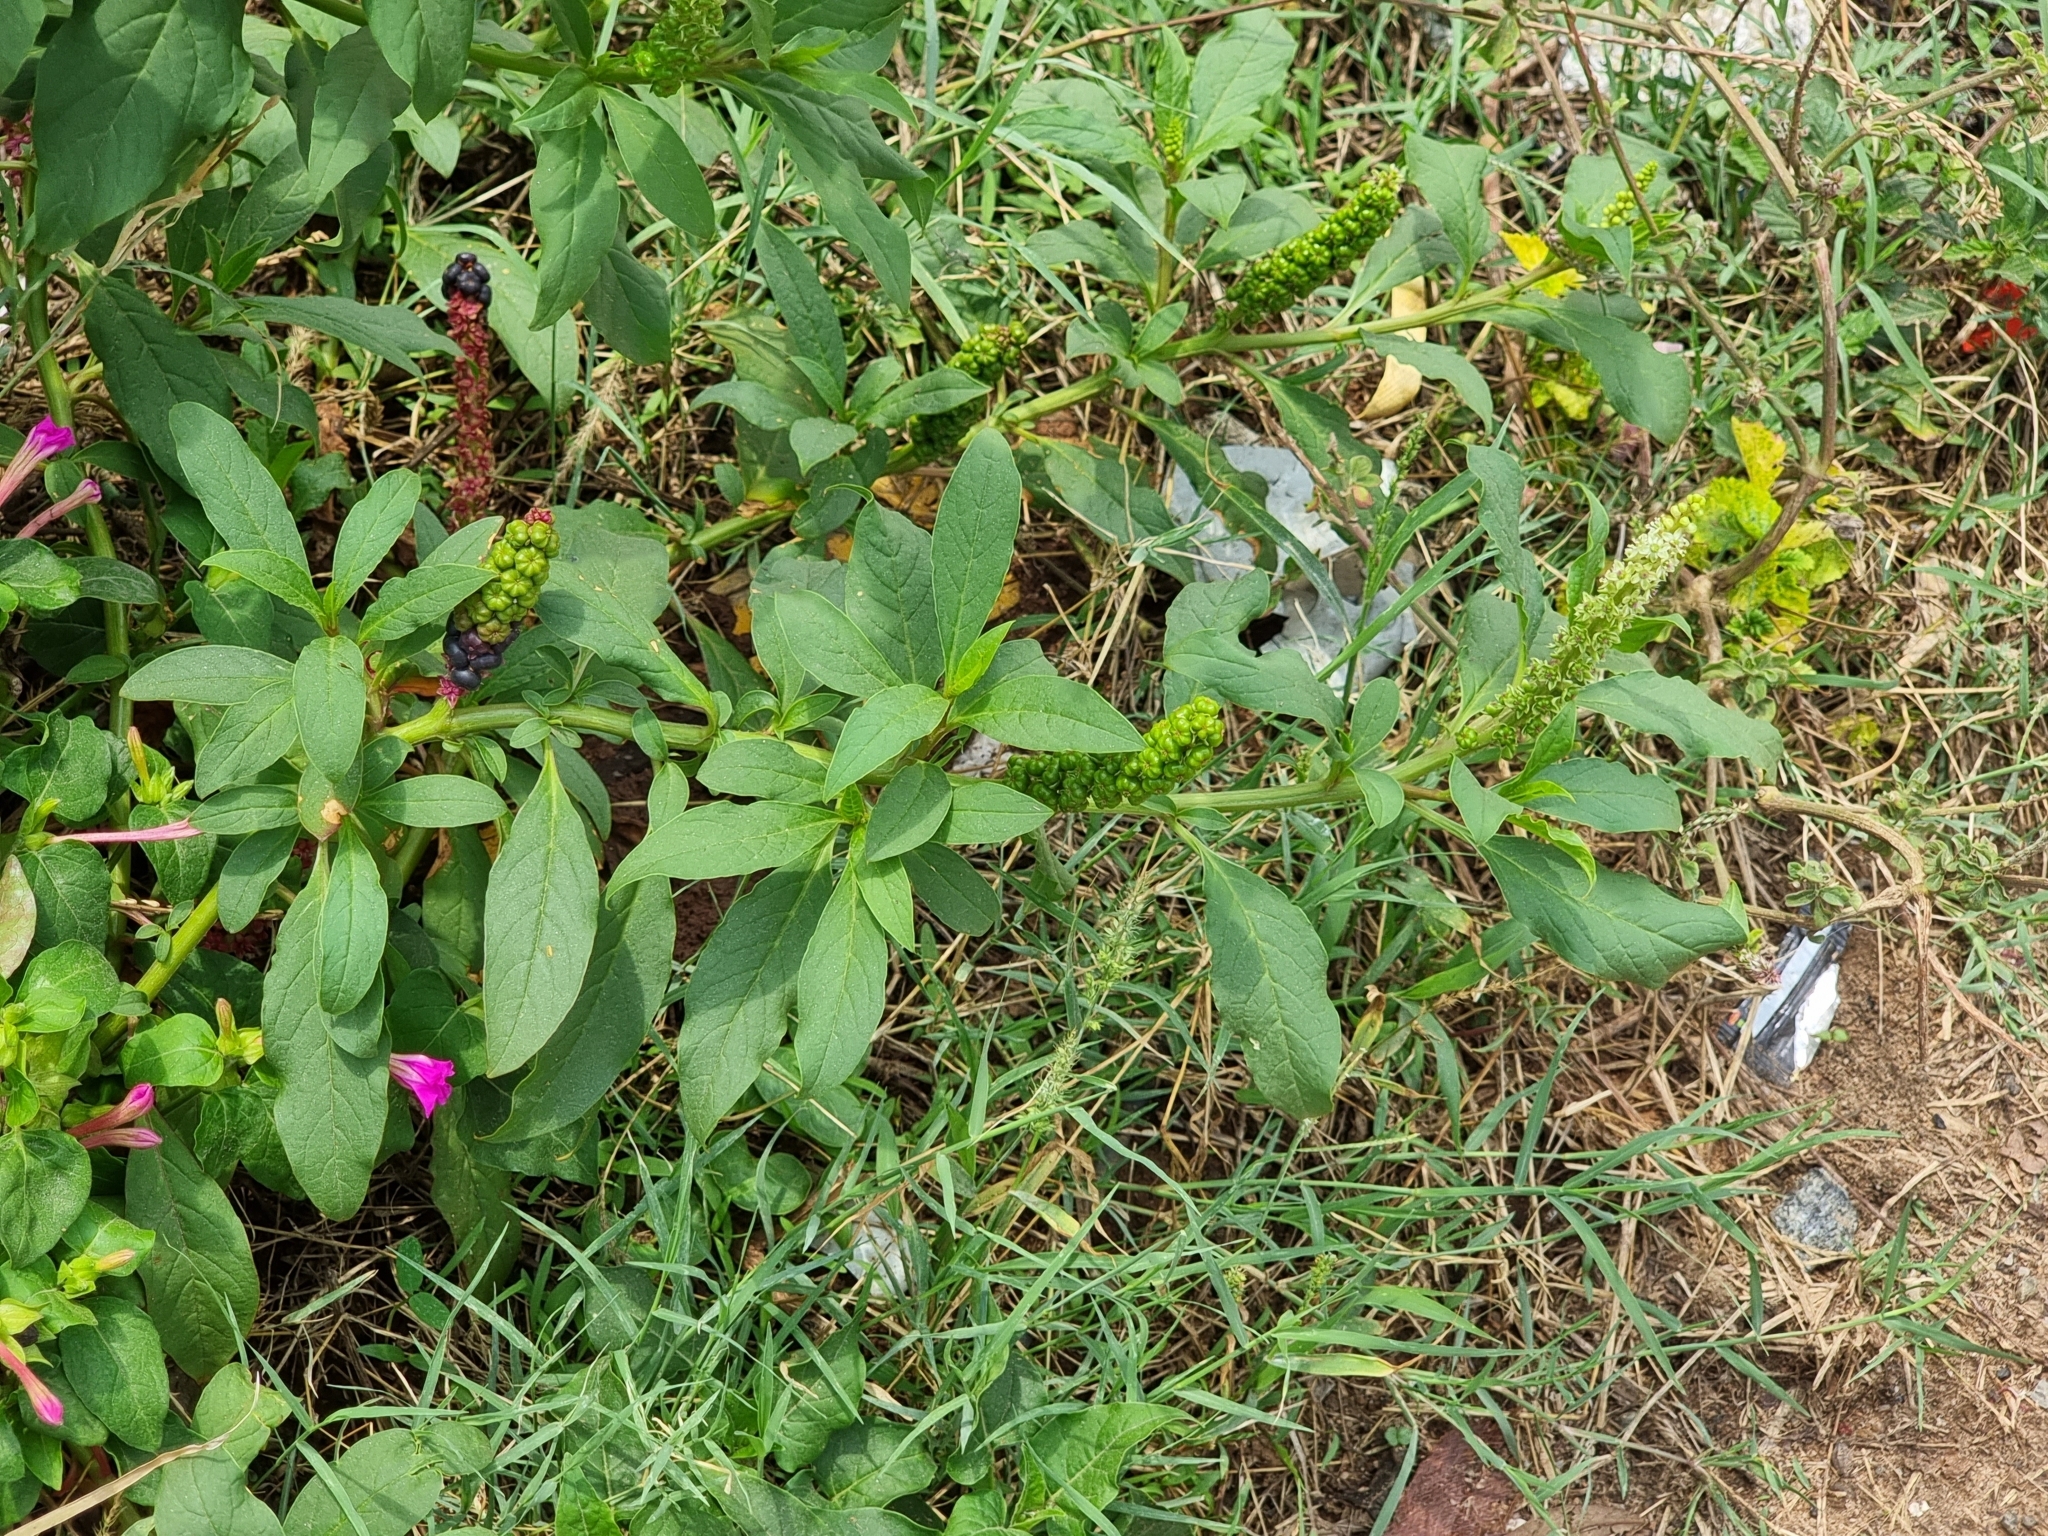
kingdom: Plantae
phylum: Tracheophyta
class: Magnoliopsida
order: Caryophyllales
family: Phytolaccaceae
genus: Phytolacca
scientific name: Phytolacca icosandra
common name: Button pokeweed
